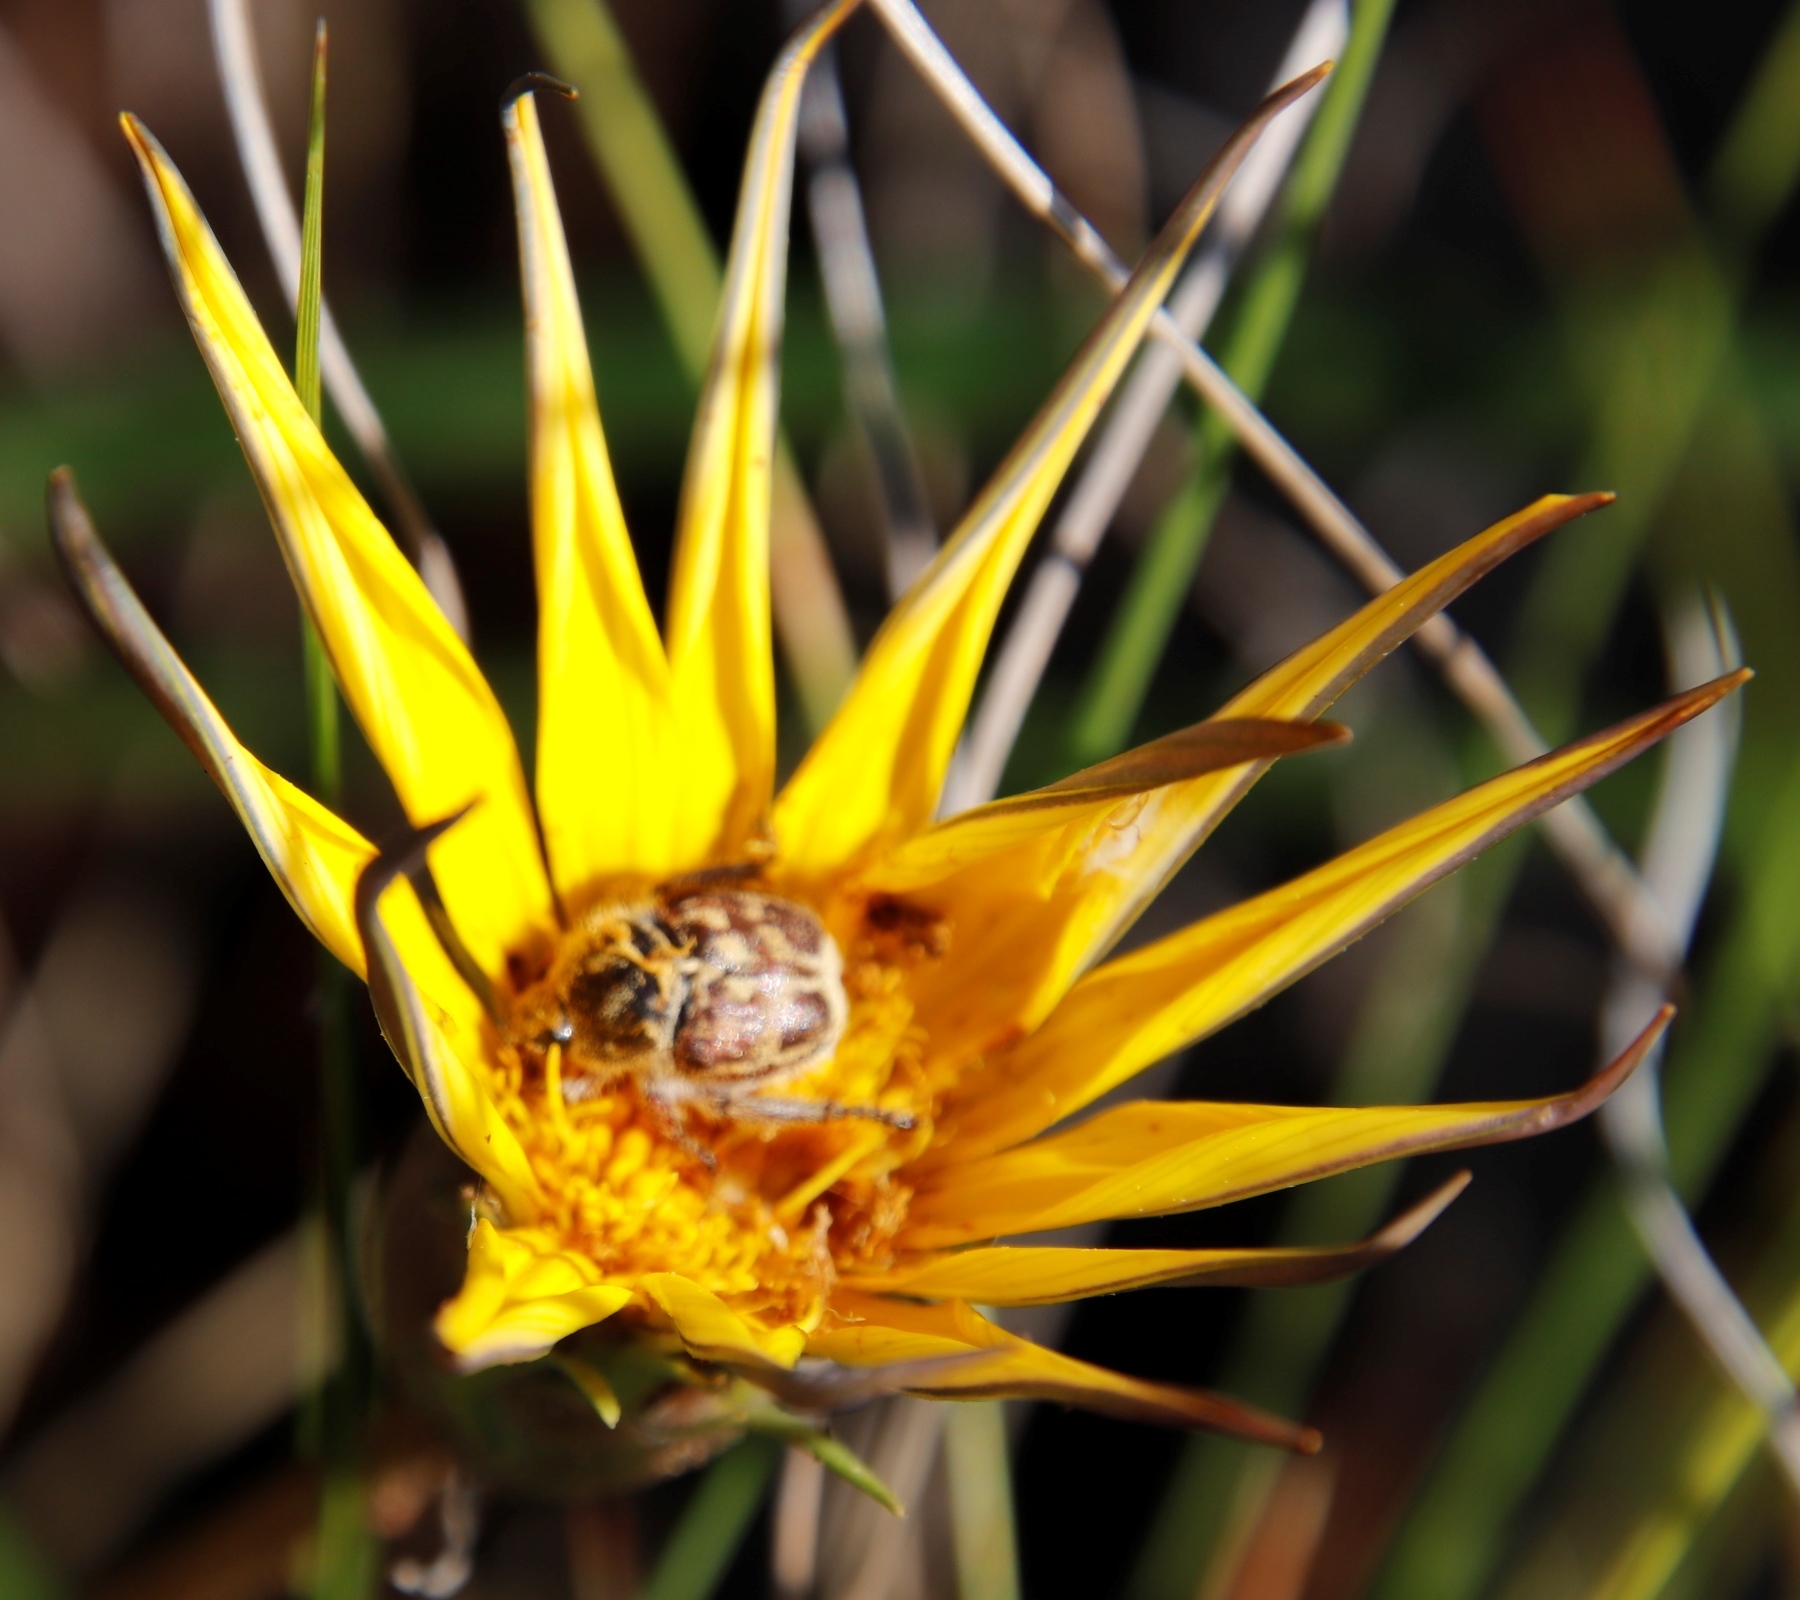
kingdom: Plantae
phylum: Tracheophyta
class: Magnoliopsida
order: Asterales
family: Asteraceae
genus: Gazania
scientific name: Gazania krebsiana
